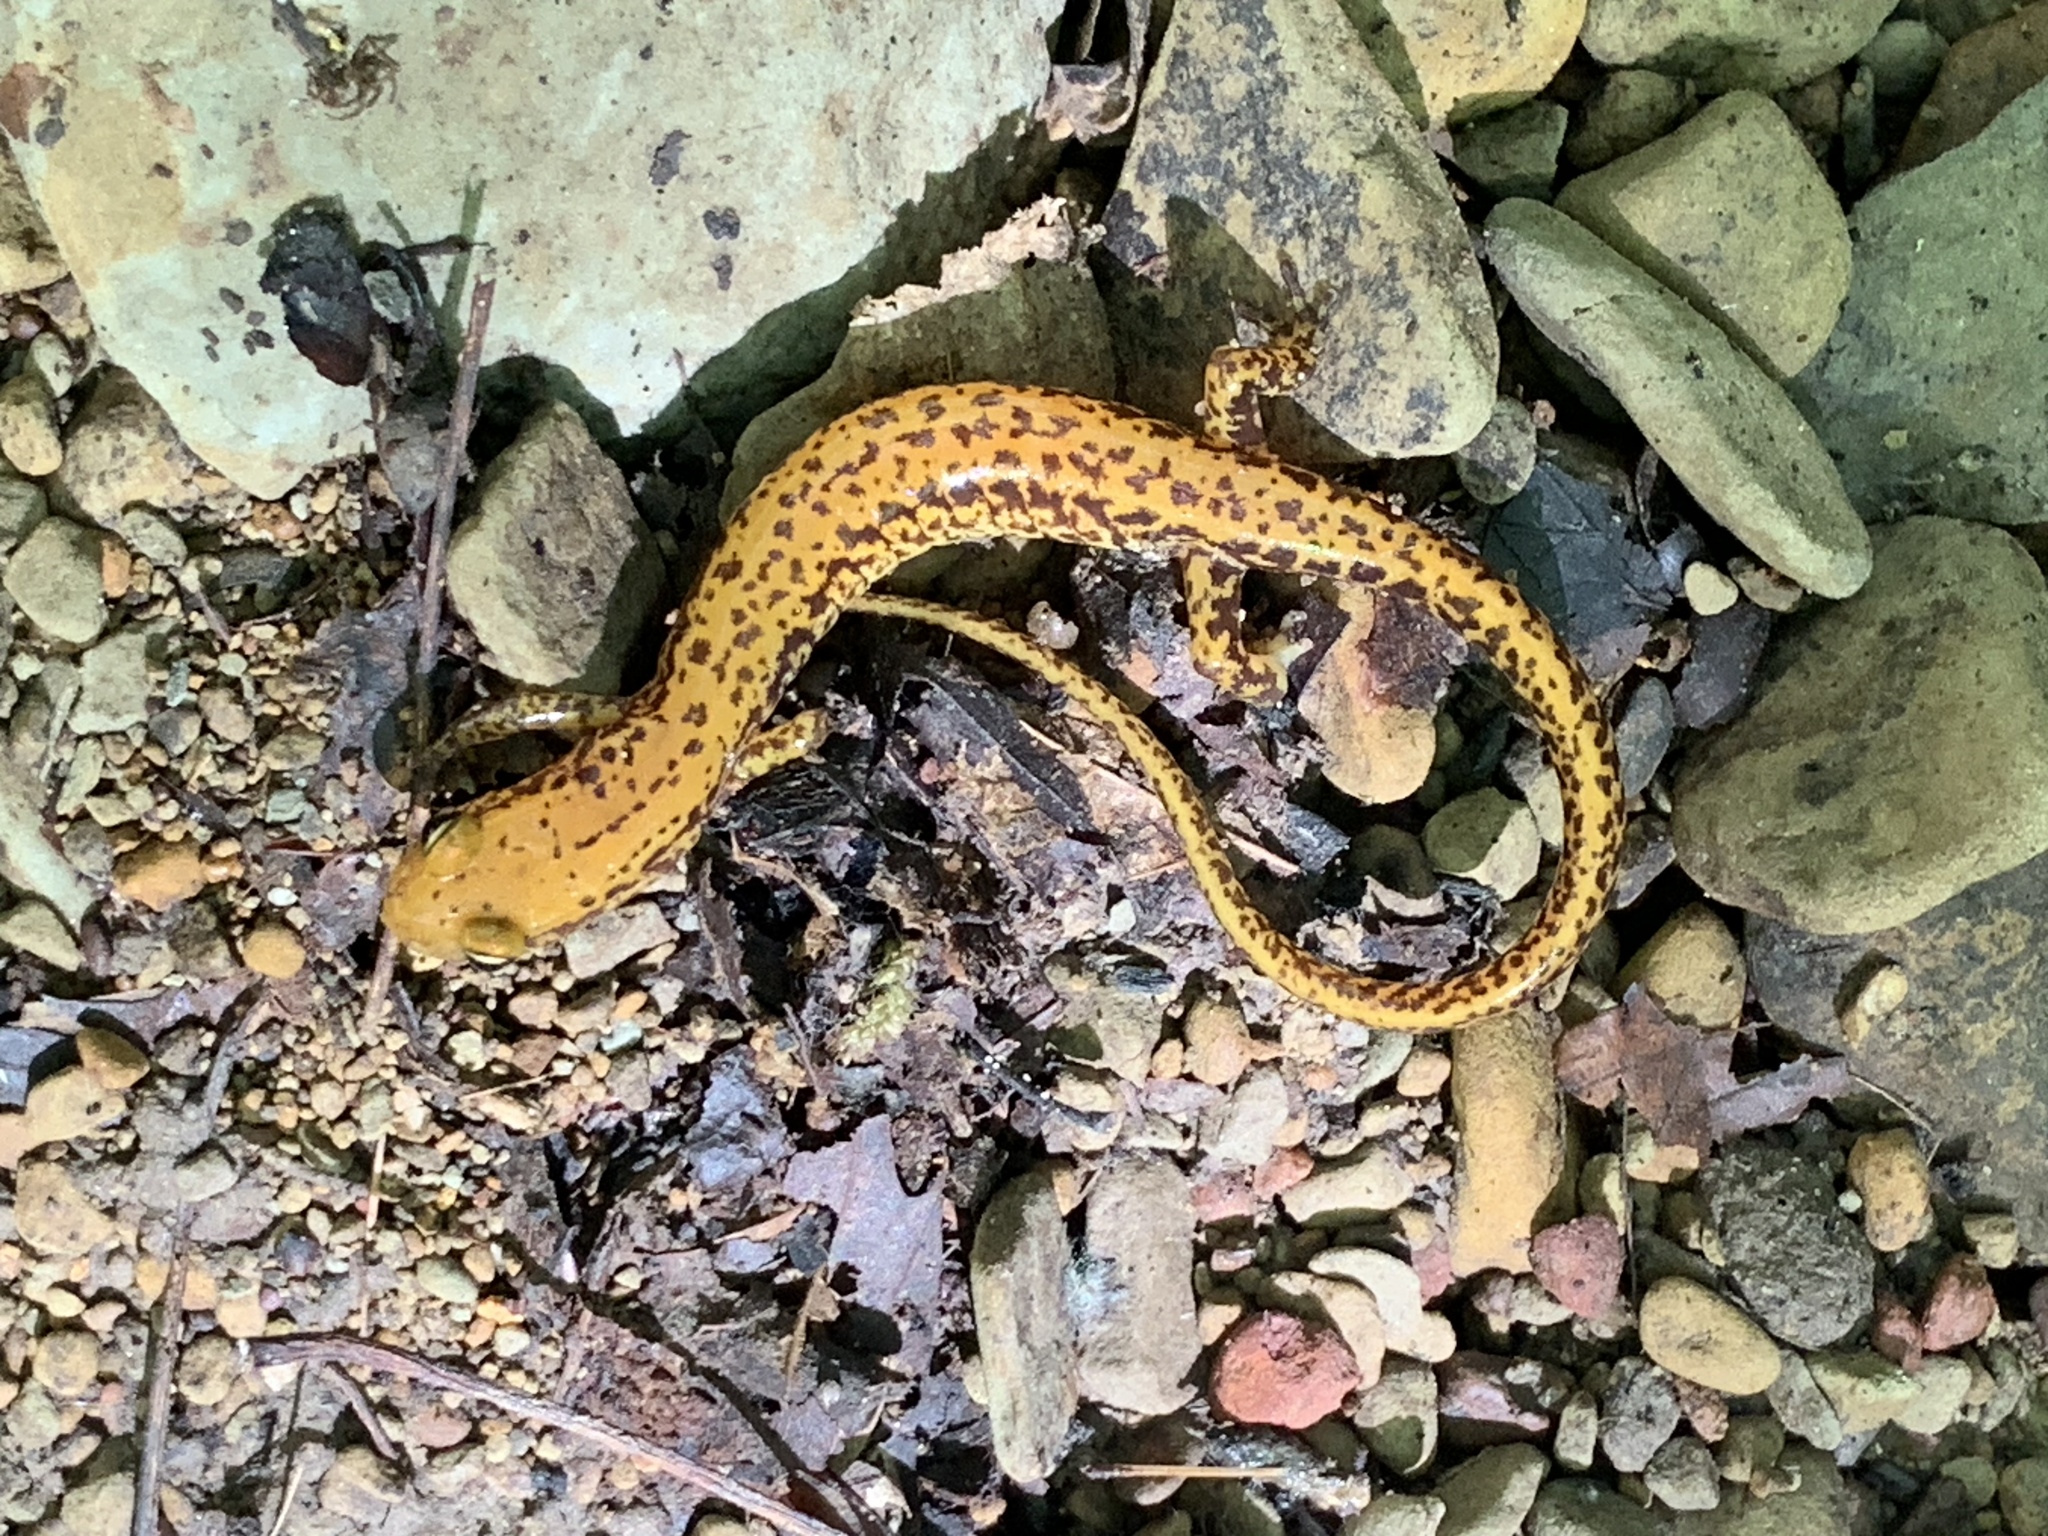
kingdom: Animalia
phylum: Chordata
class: Amphibia
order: Caudata
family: Plethodontidae
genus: Eurycea
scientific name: Eurycea longicauda
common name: Long-tailed salamander
